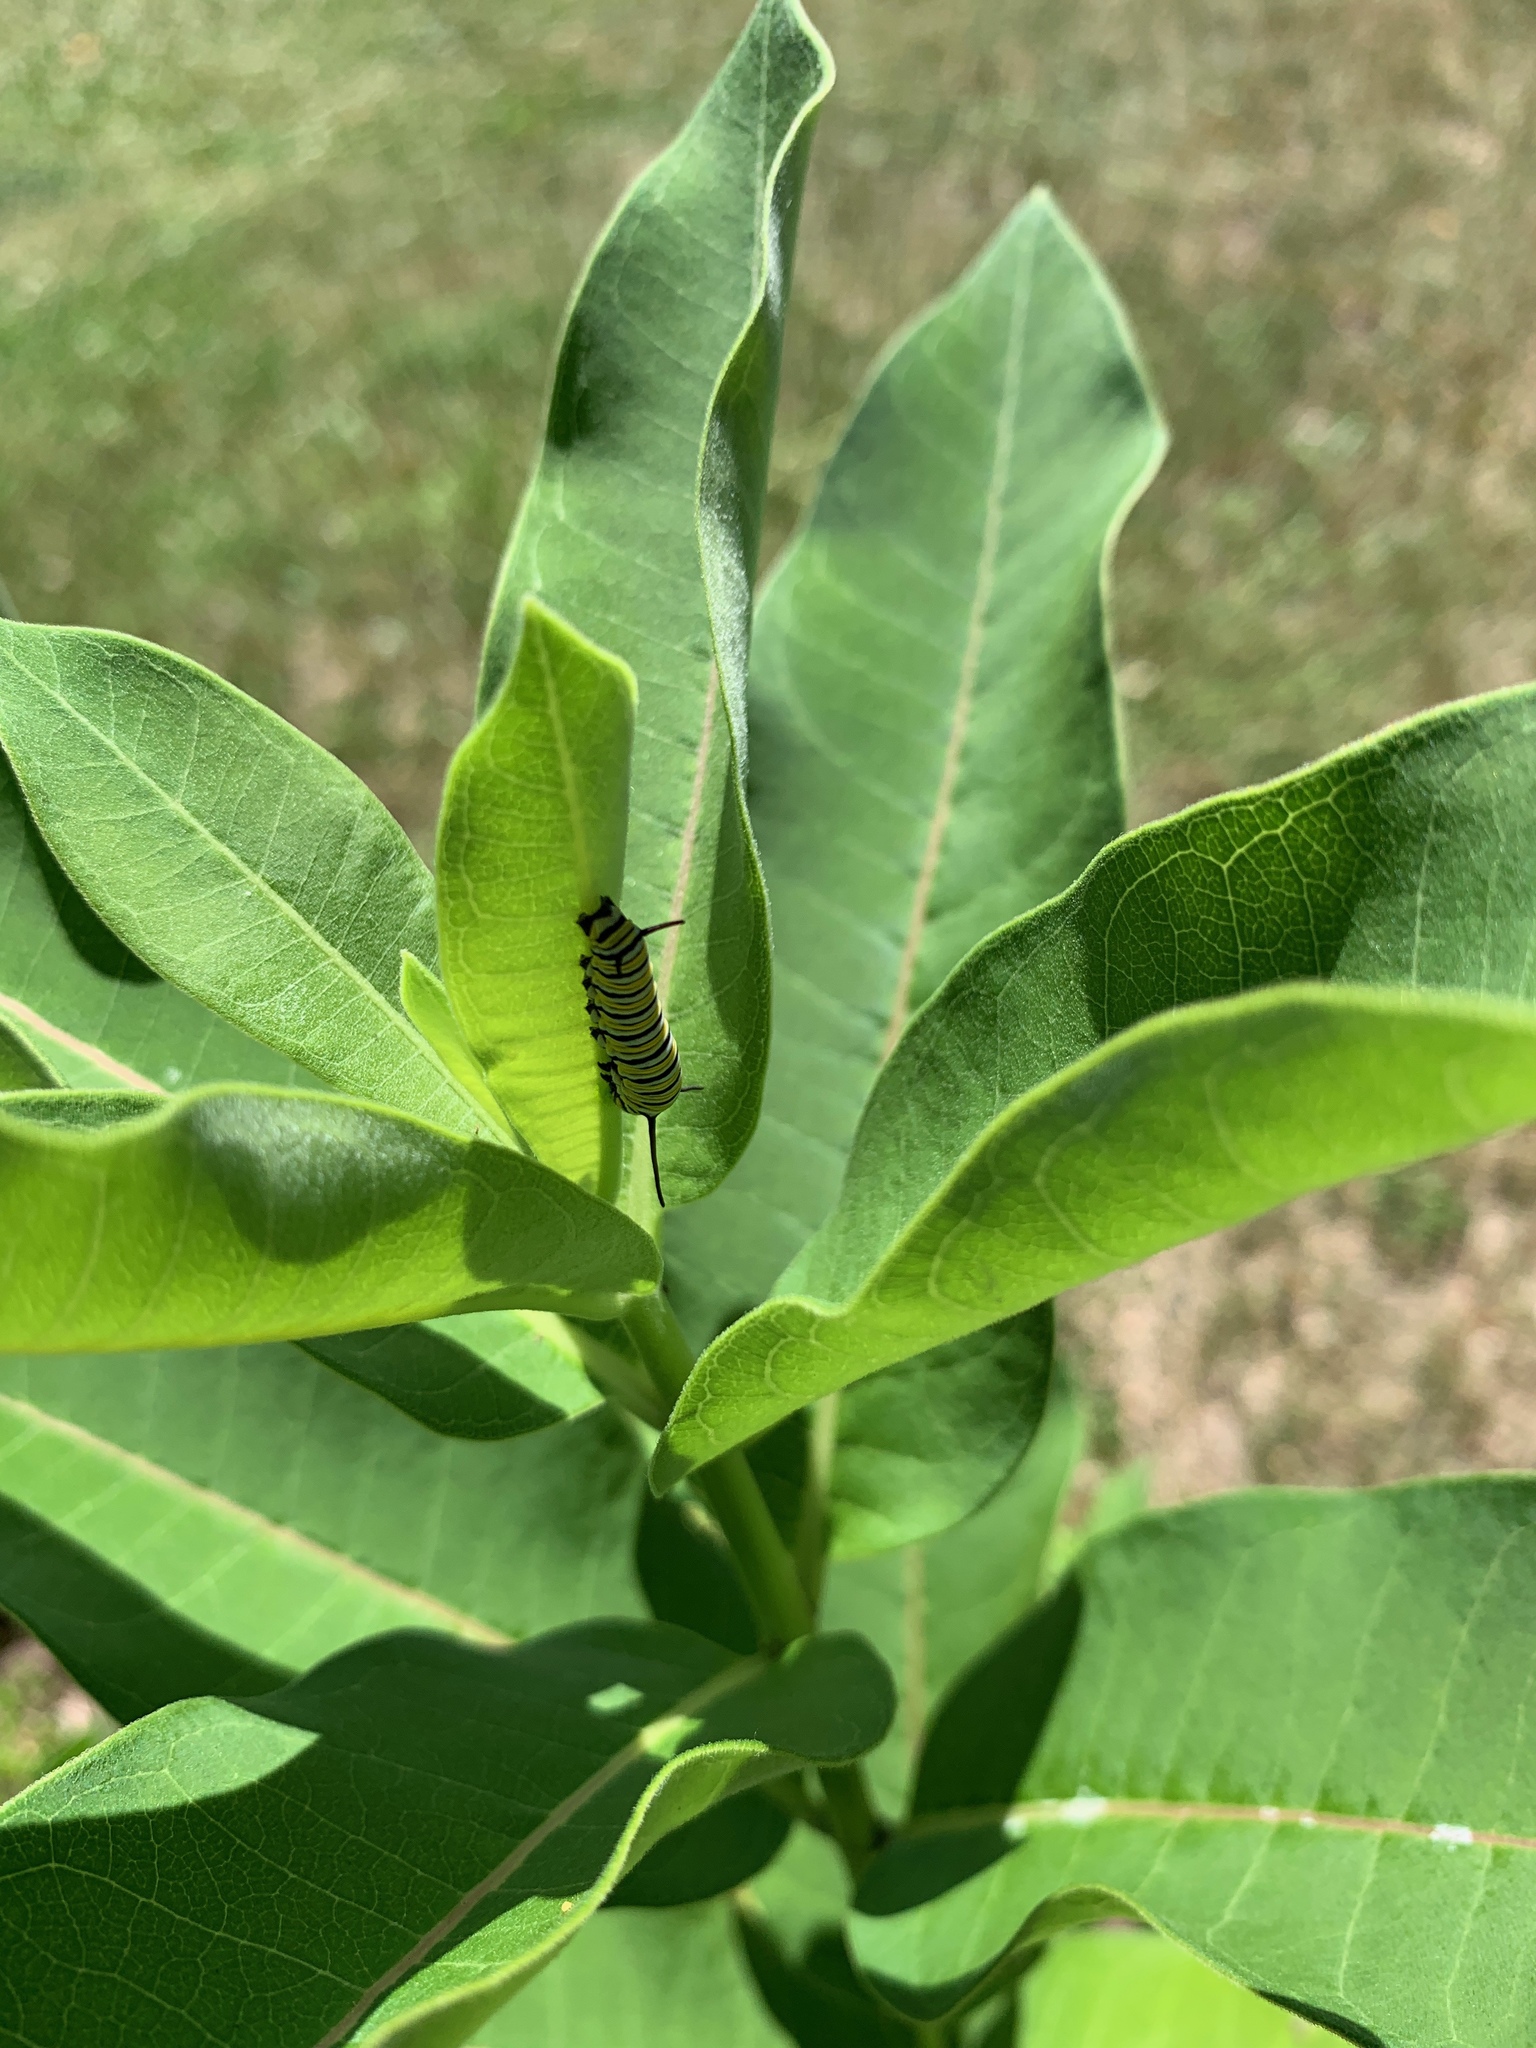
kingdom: Animalia
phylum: Arthropoda
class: Insecta
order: Lepidoptera
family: Nymphalidae
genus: Danaus
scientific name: Danaus plexippus
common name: Monarch
